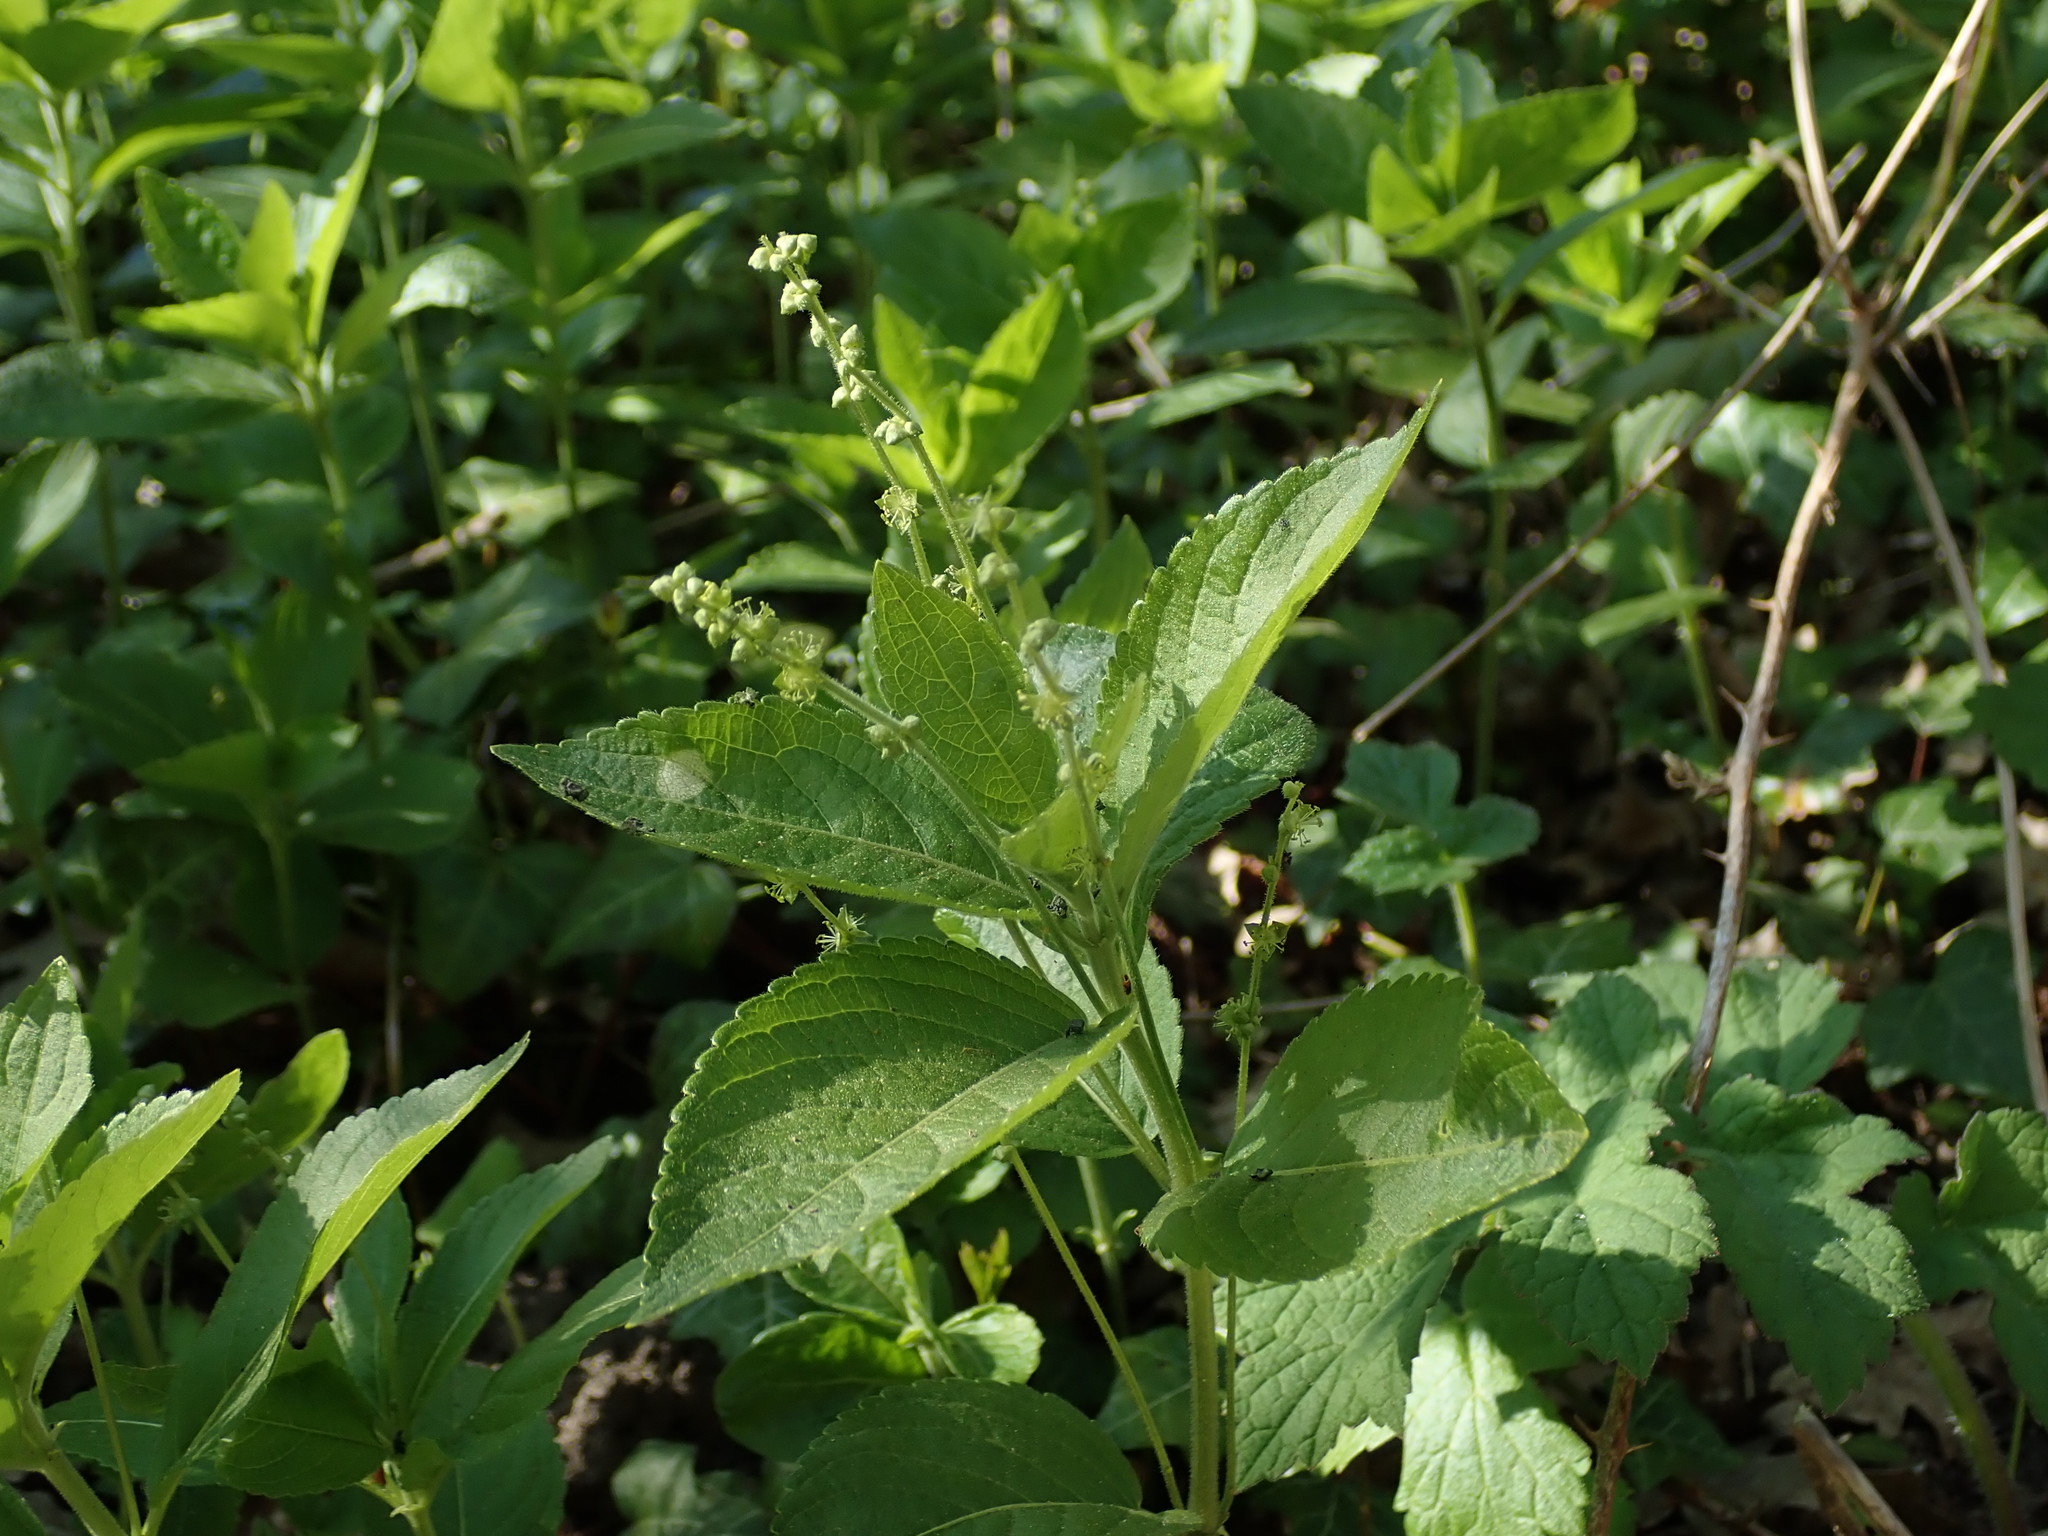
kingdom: Plantae
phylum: Tracheophyta
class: Magnoliopsida
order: Malpighiales
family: Euphorbiaceae
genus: Mercurialis
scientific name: Mercurialis perennis
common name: Dog mercury
